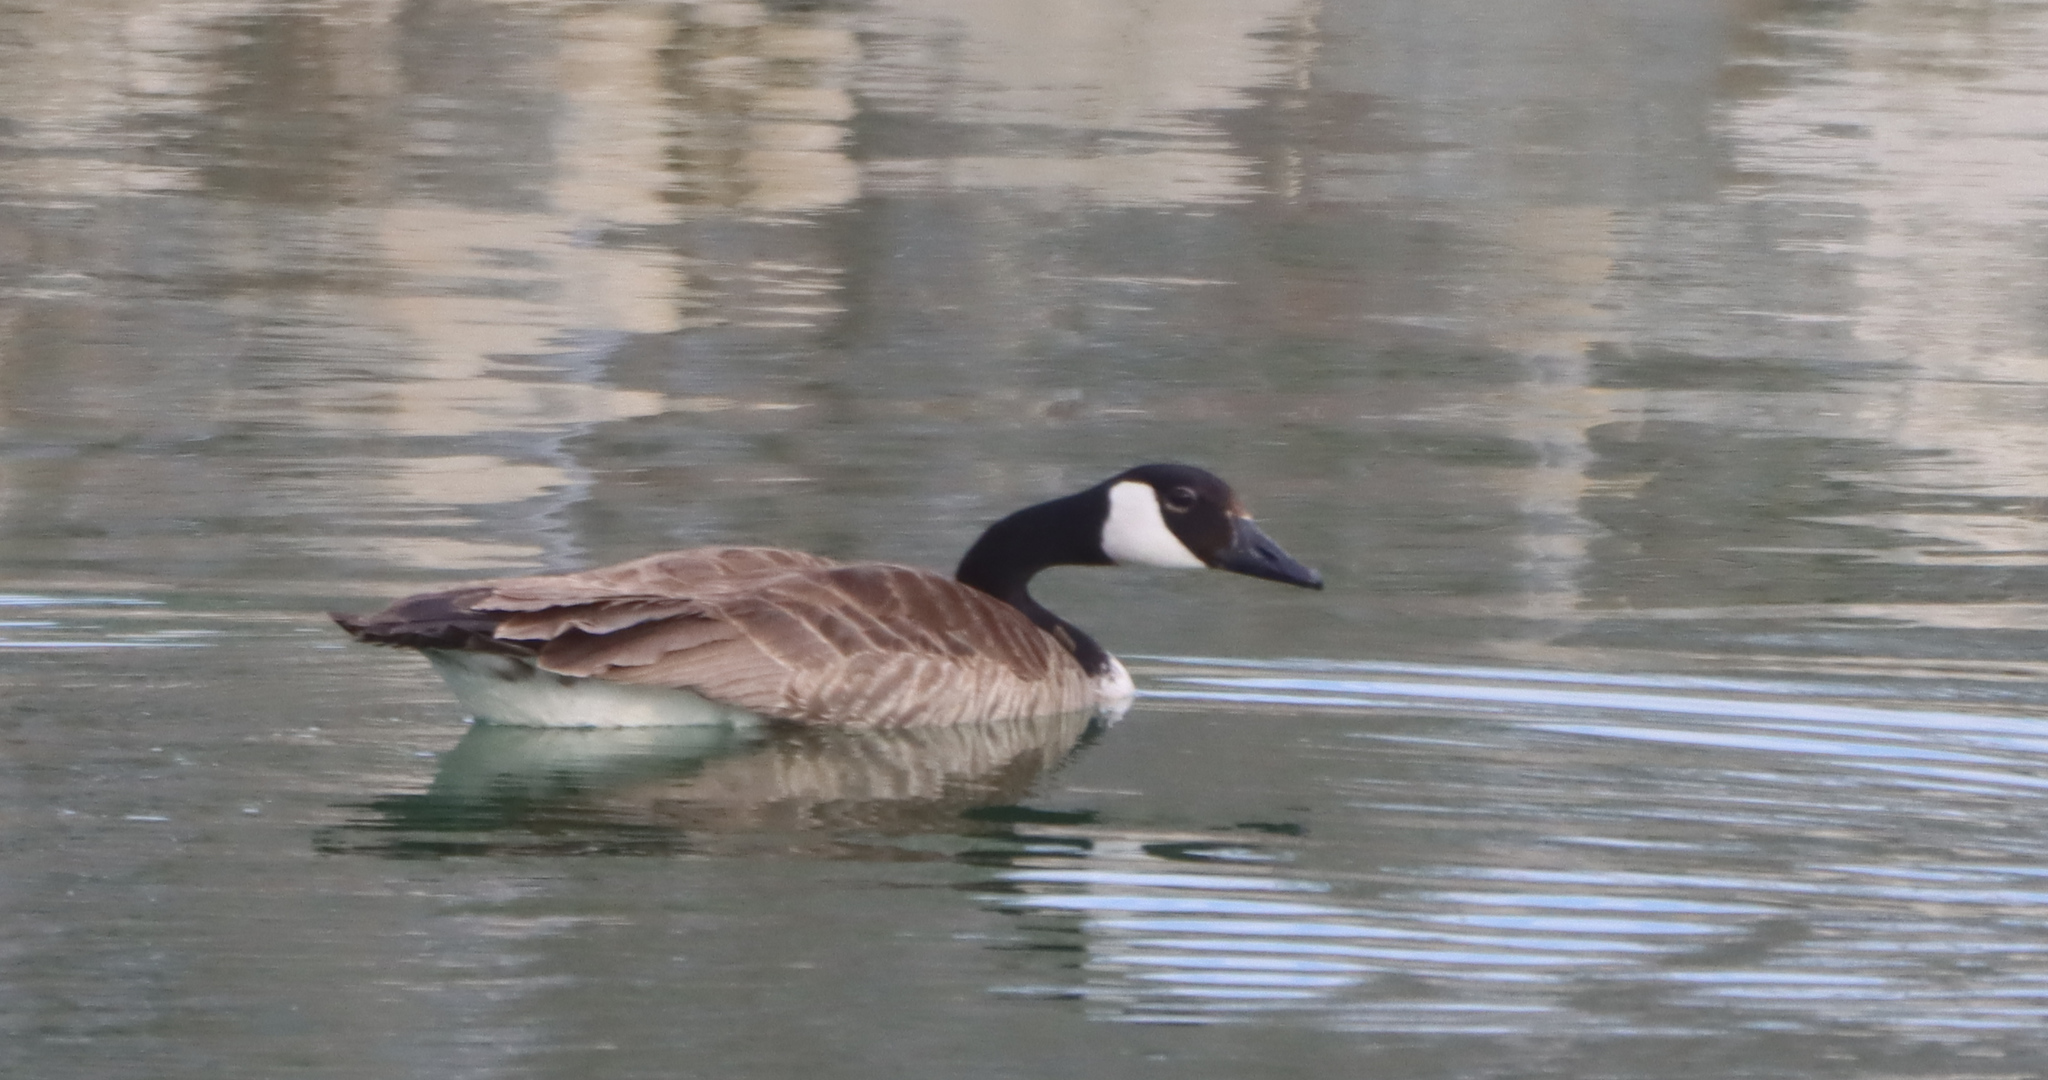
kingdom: Animalia
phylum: Chordata
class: Aves
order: Anseriformes
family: Anatidae
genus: Branta
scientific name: Branta canadensis
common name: Canada goose
